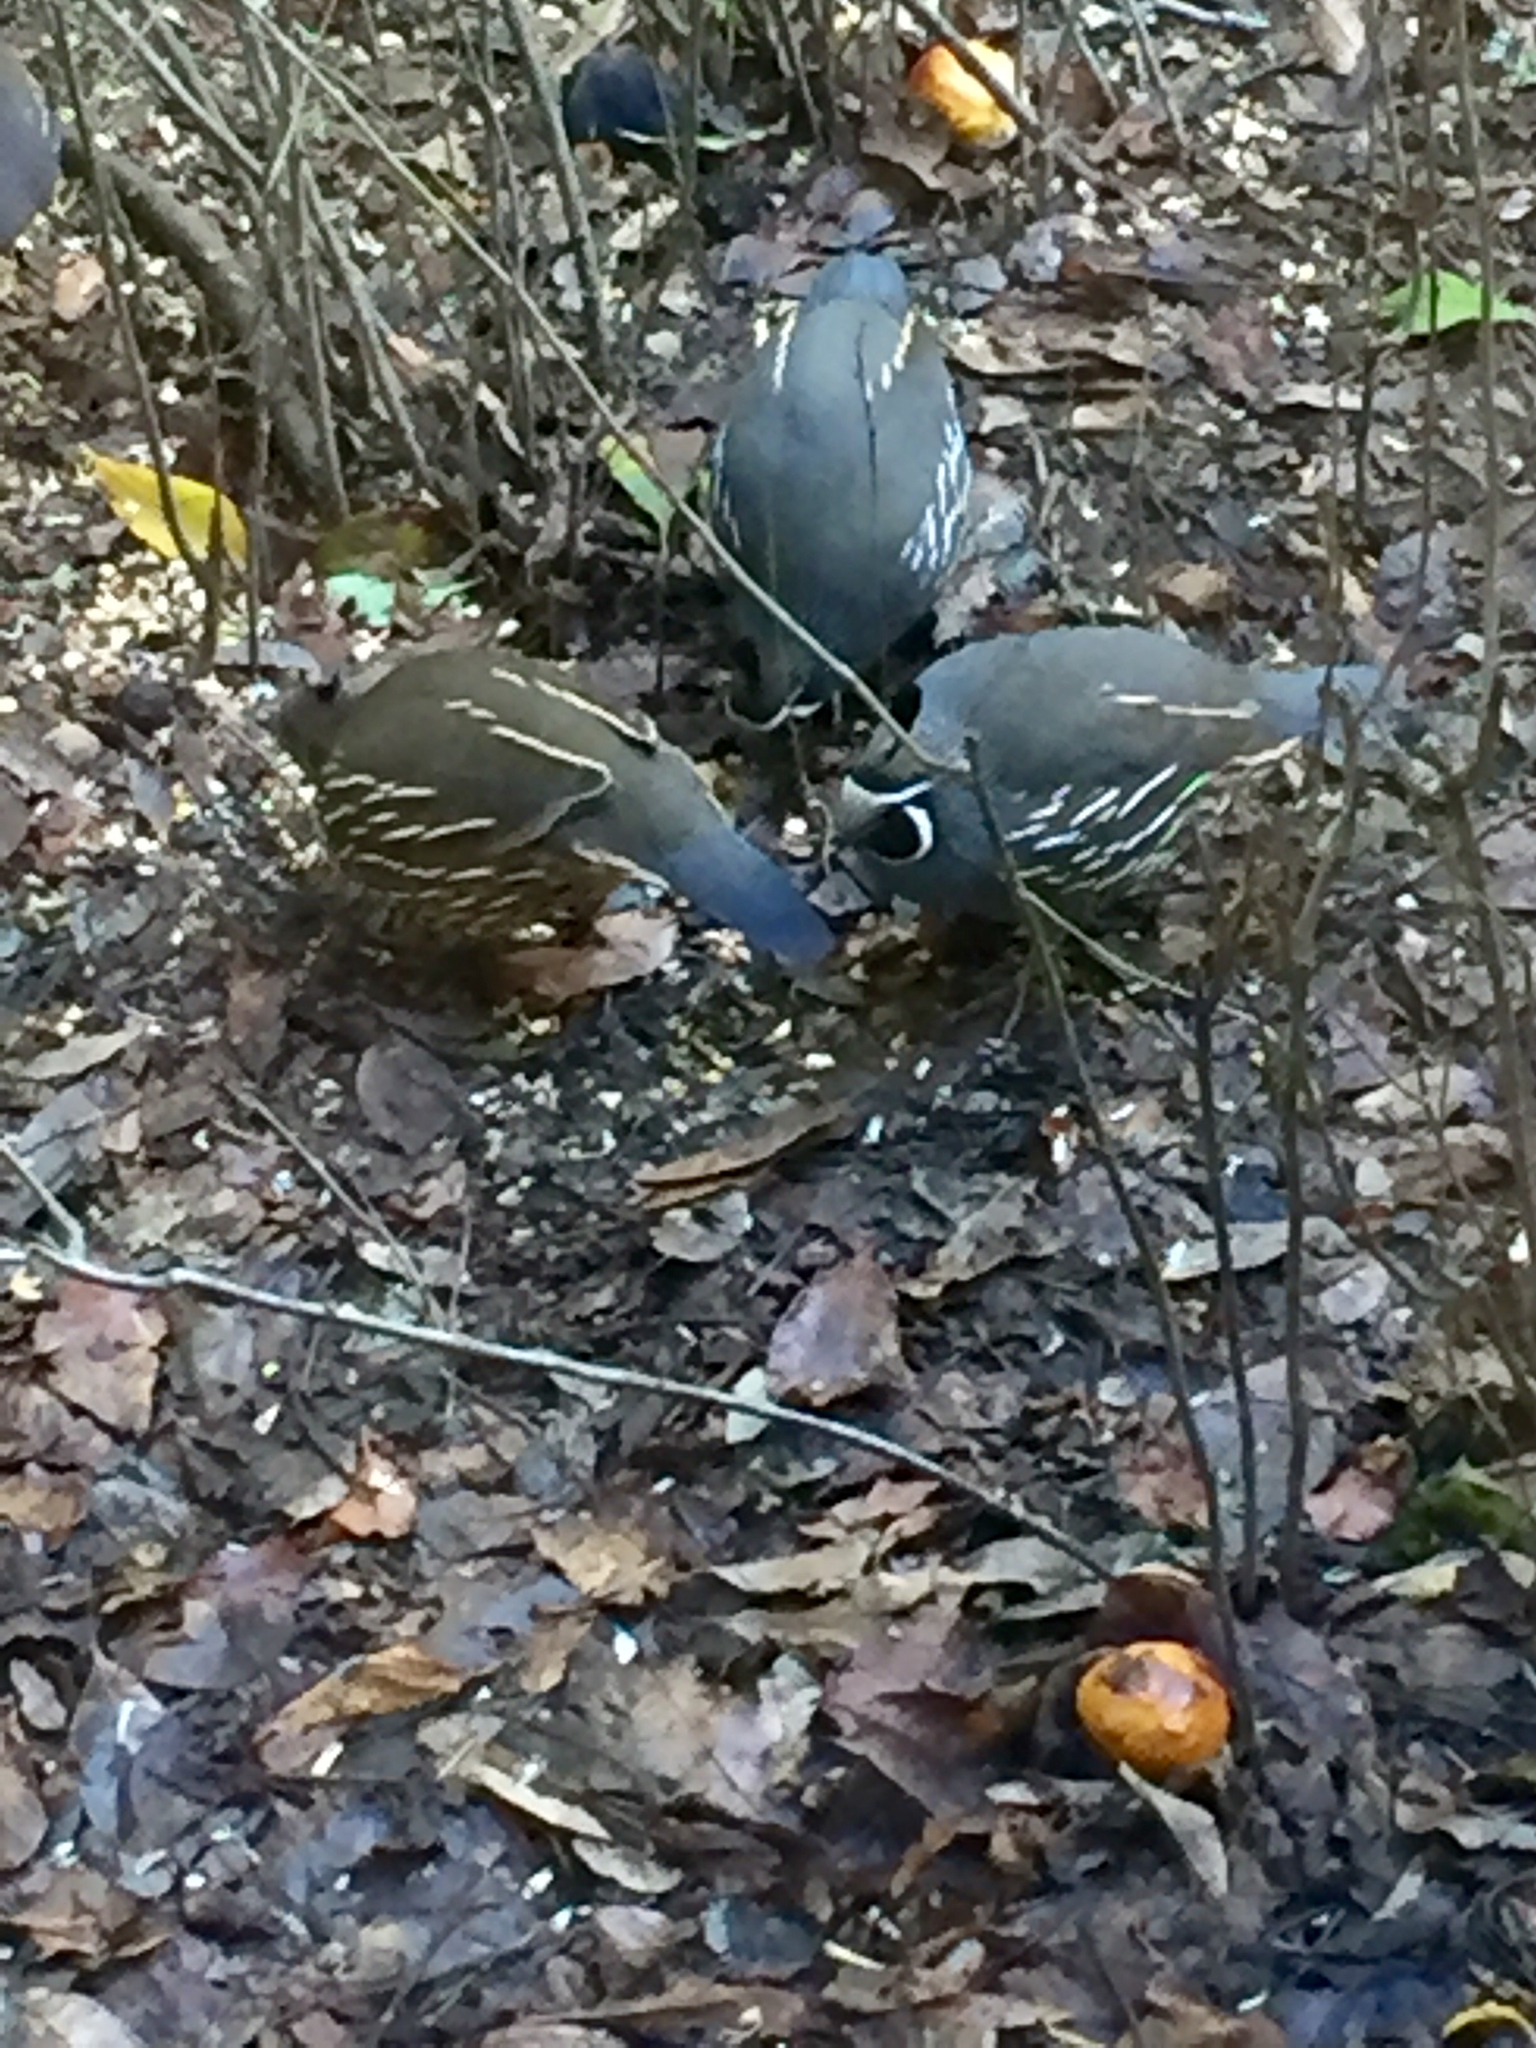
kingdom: Animalia
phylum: Chordata
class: Aves
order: Galliformes
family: Odontophoridae
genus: Callipepla
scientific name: Callipepla californica
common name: California quail
